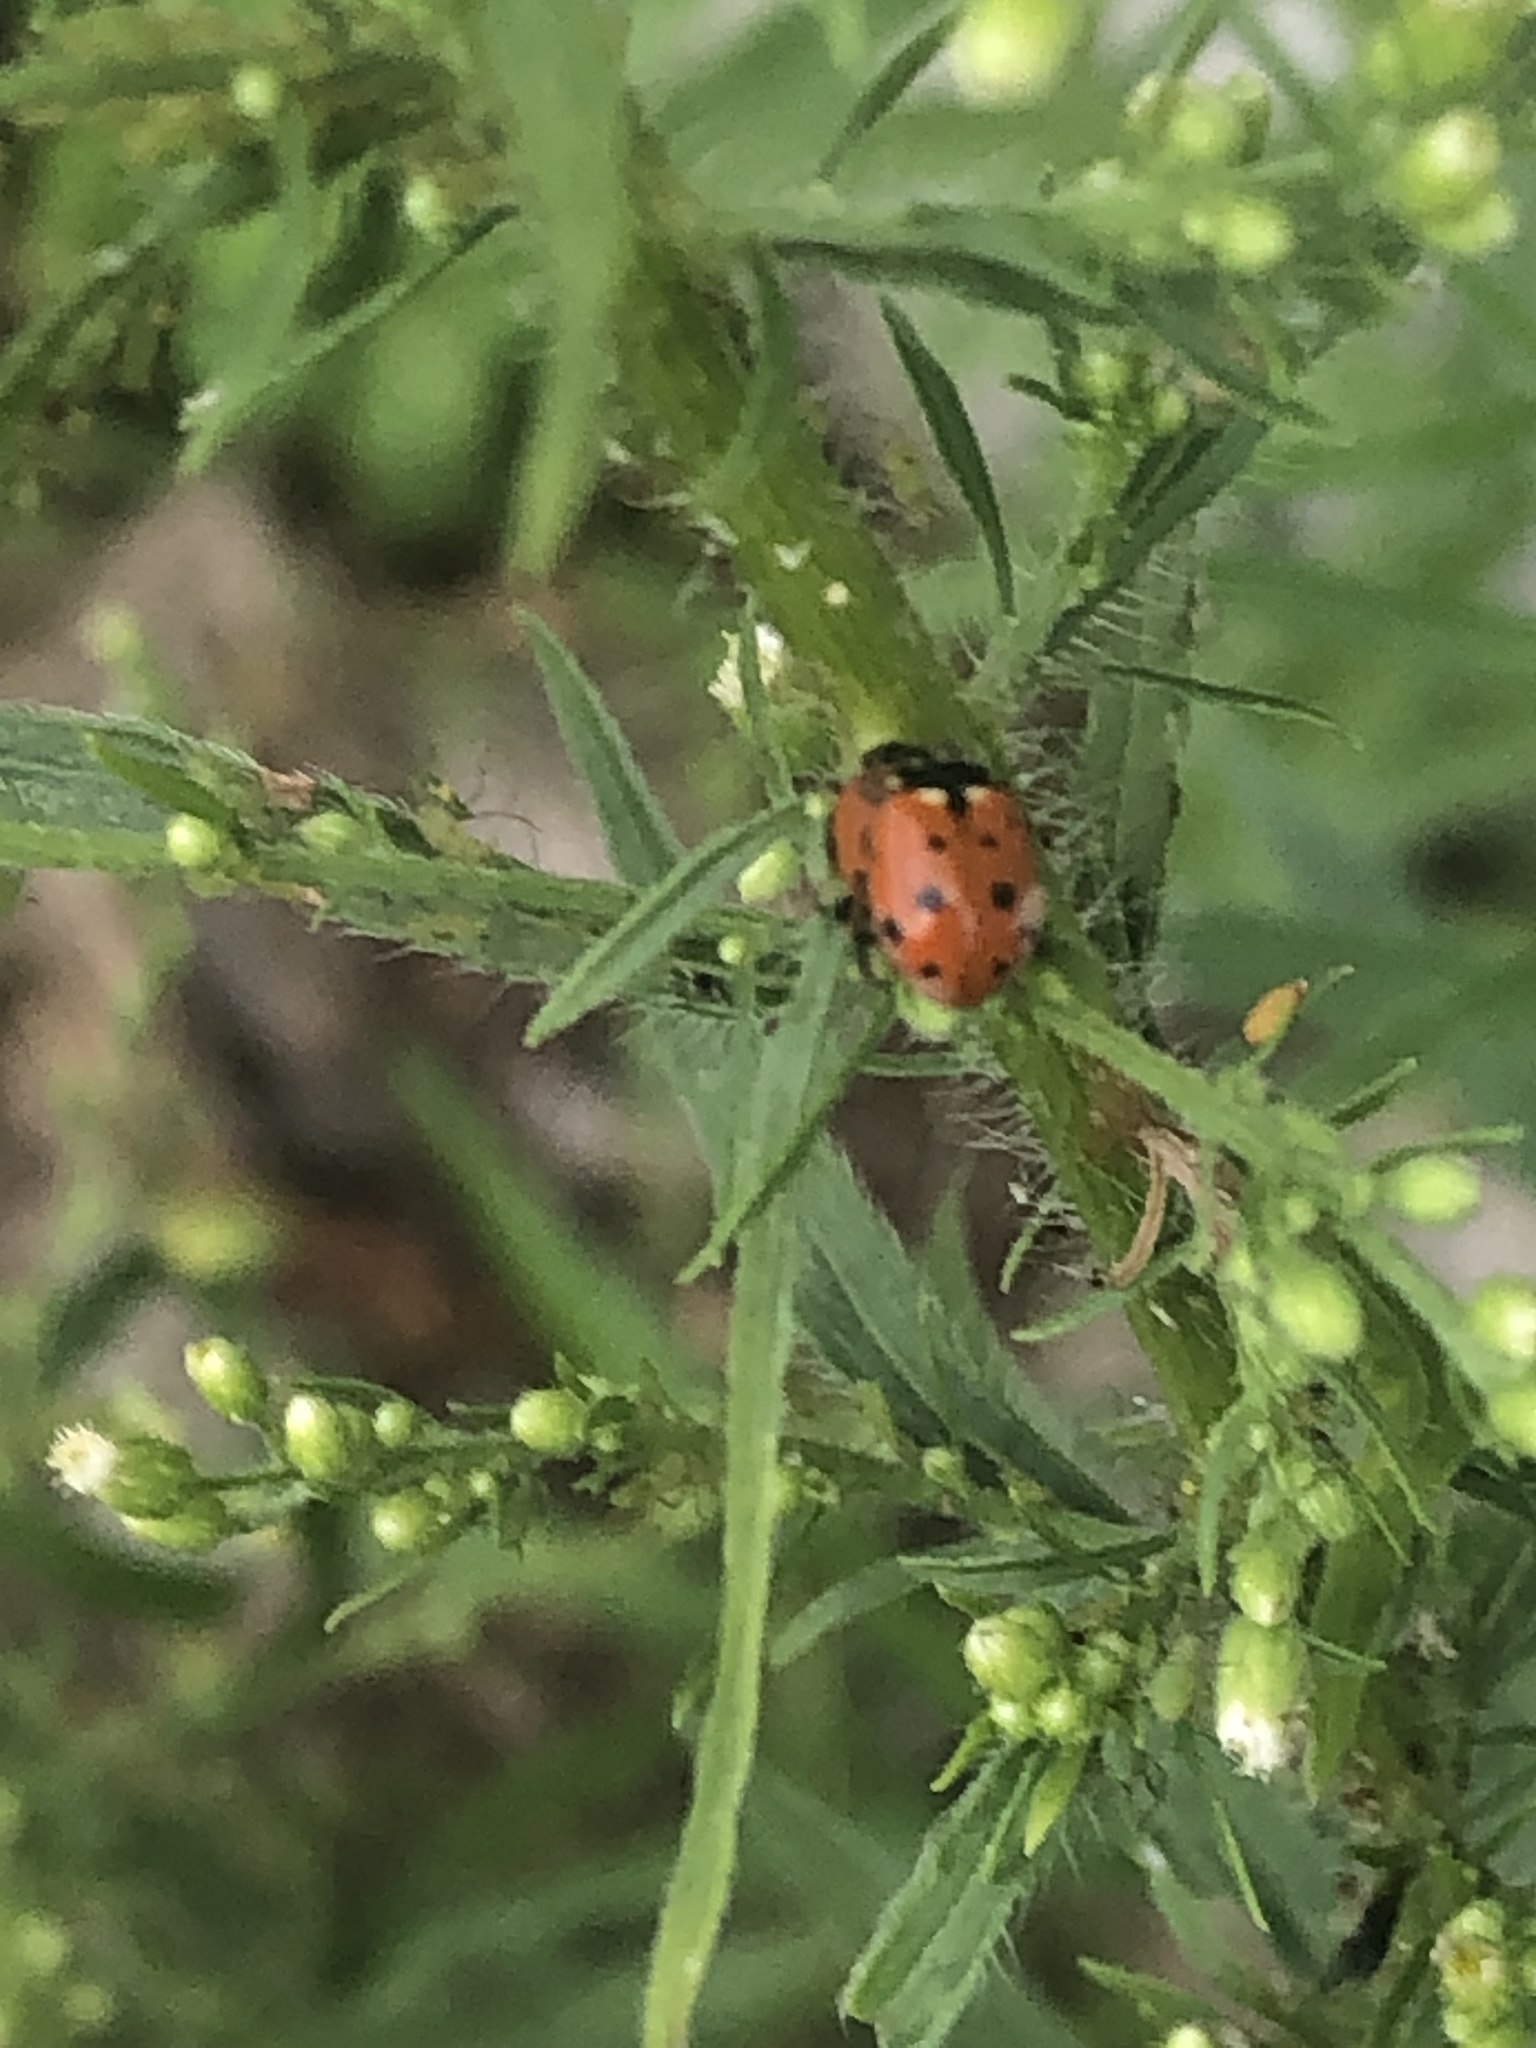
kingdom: Animalia
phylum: Arthropoda
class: Insecta
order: Coleoptera
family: Coccinellidae
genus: Hippodamia
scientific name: Hippodamia variegata
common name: Ladybird beetle
